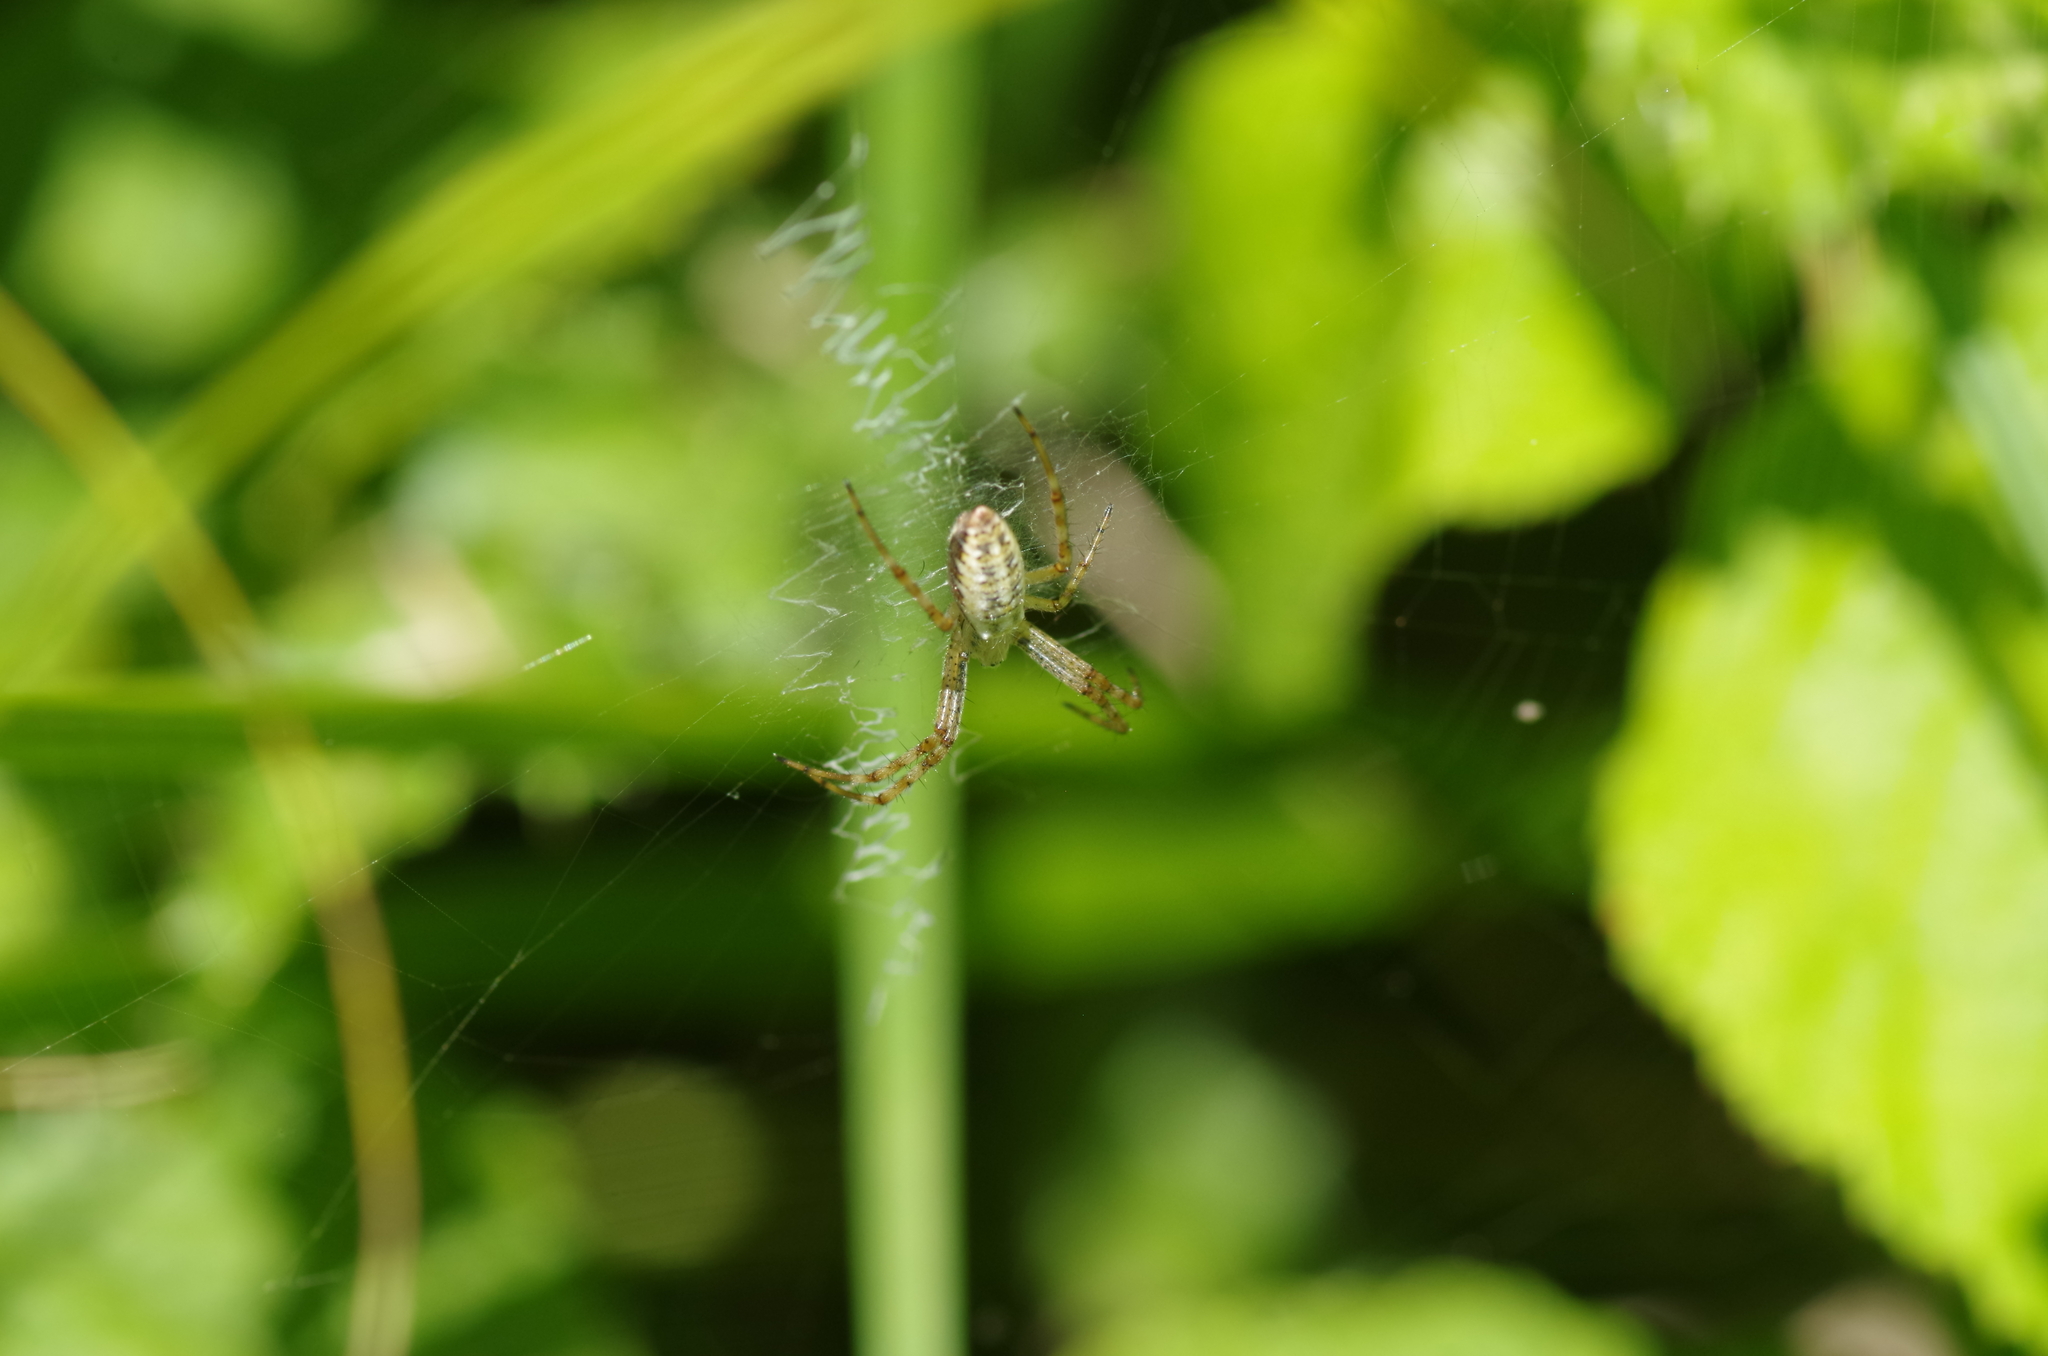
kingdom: Animalia
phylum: Arthropoda
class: Arachnida
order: Araneae
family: Araneidae
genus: Argiope
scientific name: Argiope bruennichi
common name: Wasp spider
